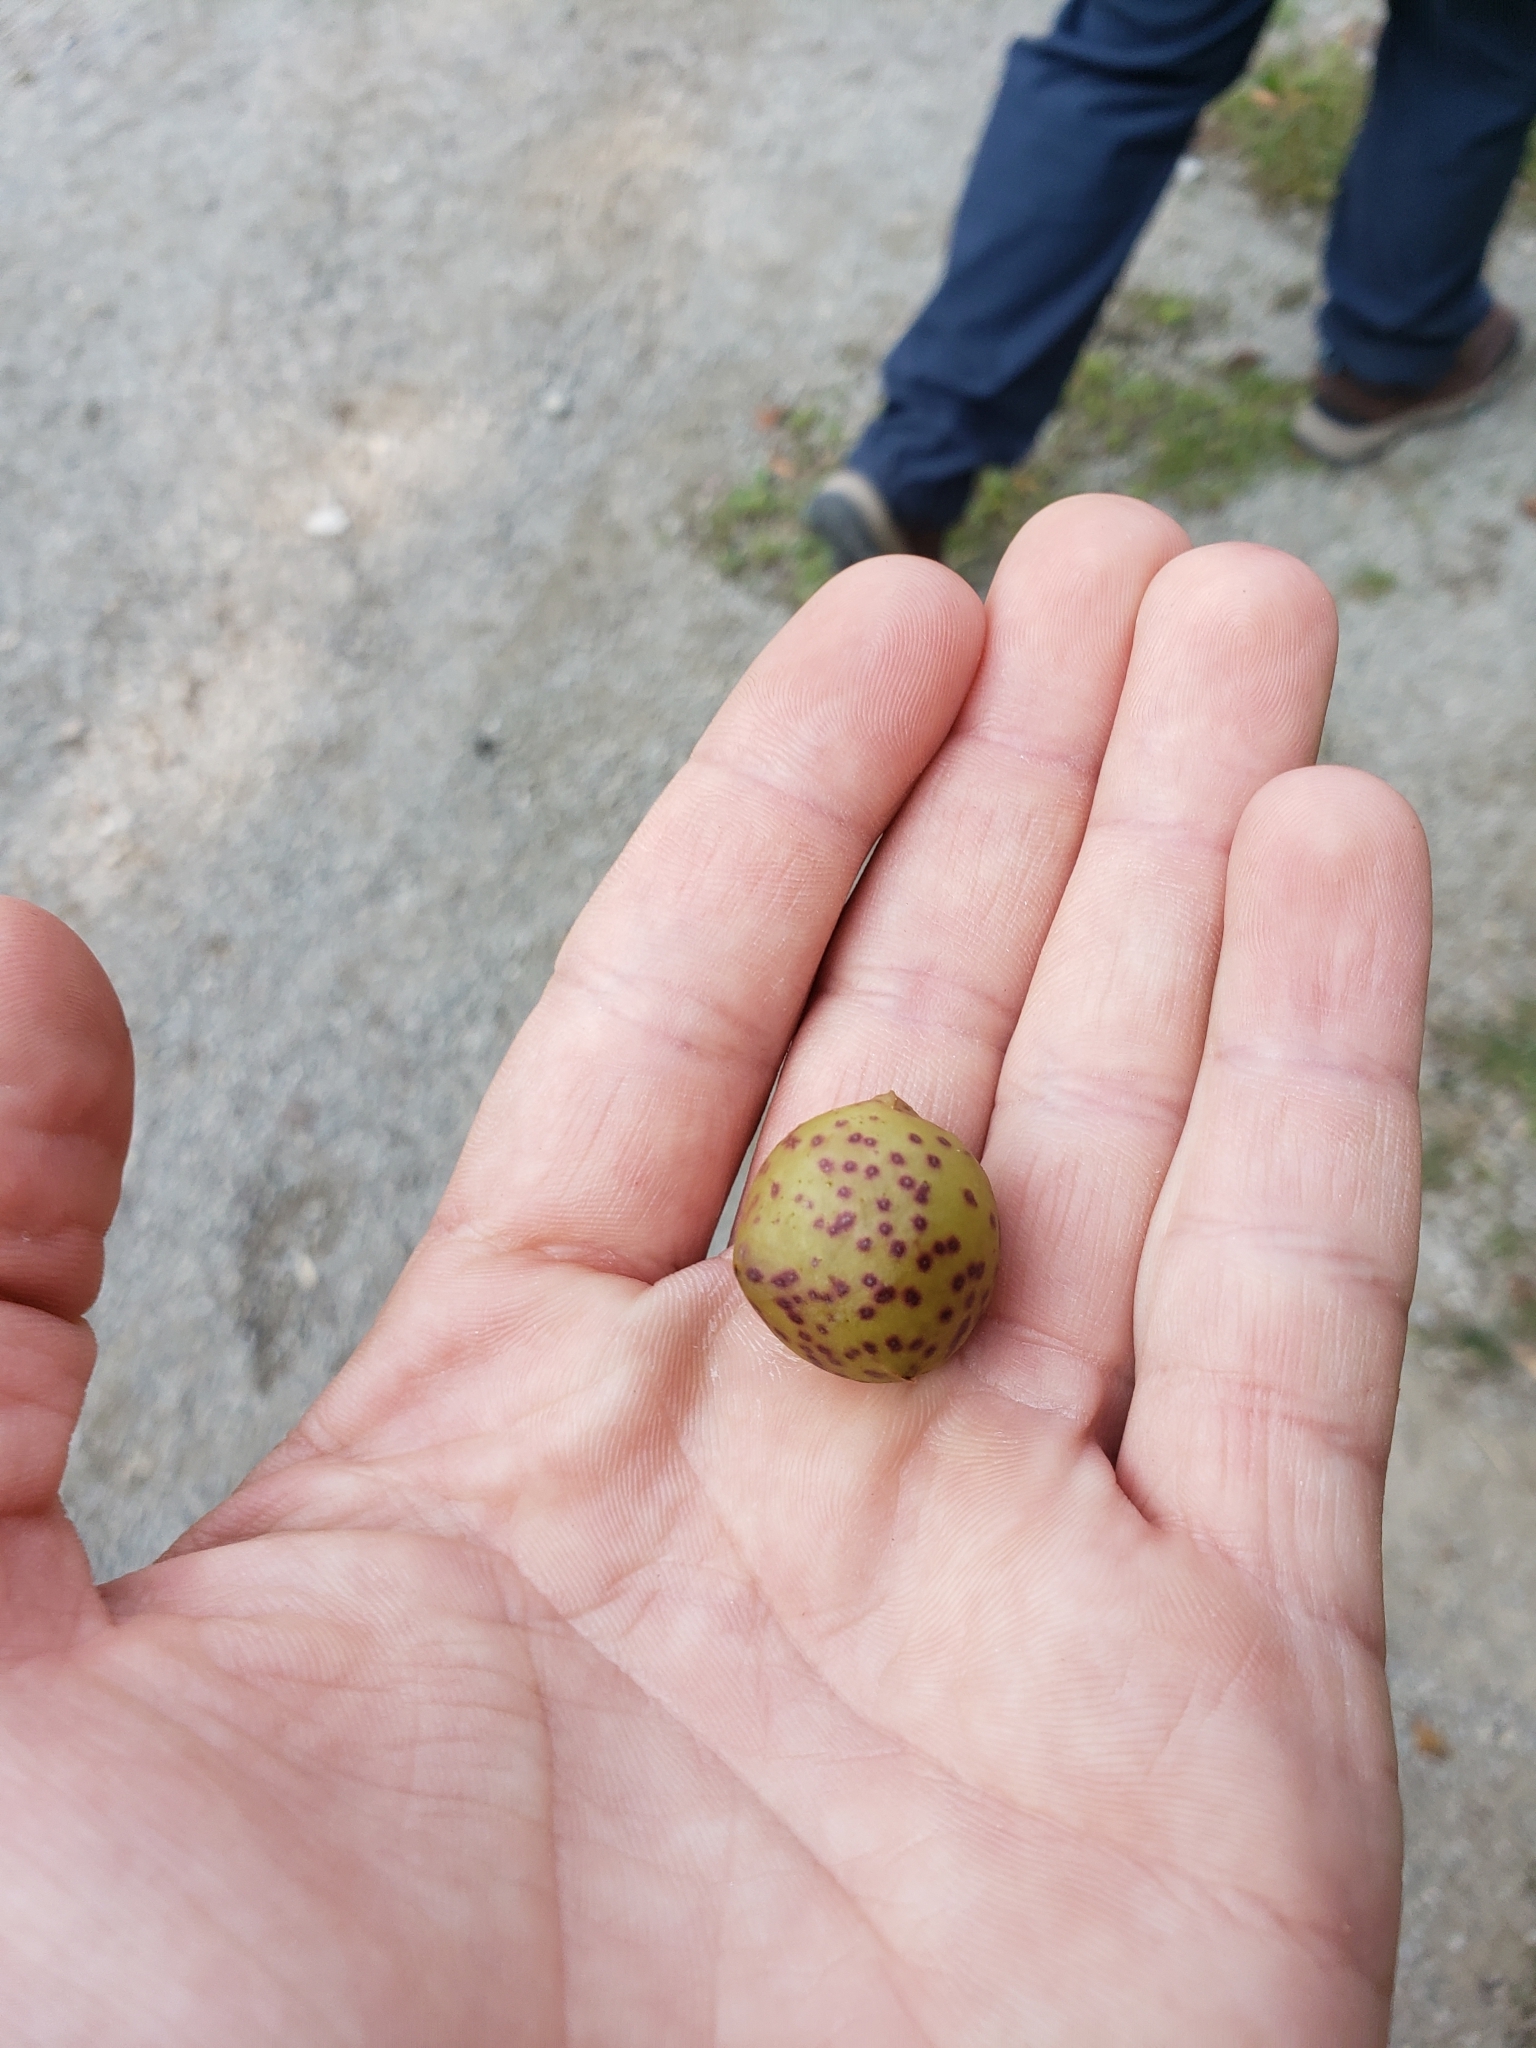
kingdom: Animalia
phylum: Arthropoda
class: Insecta
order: Hymenoptera
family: Cynipidae
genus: Amphibolips
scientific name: Amphibolips
